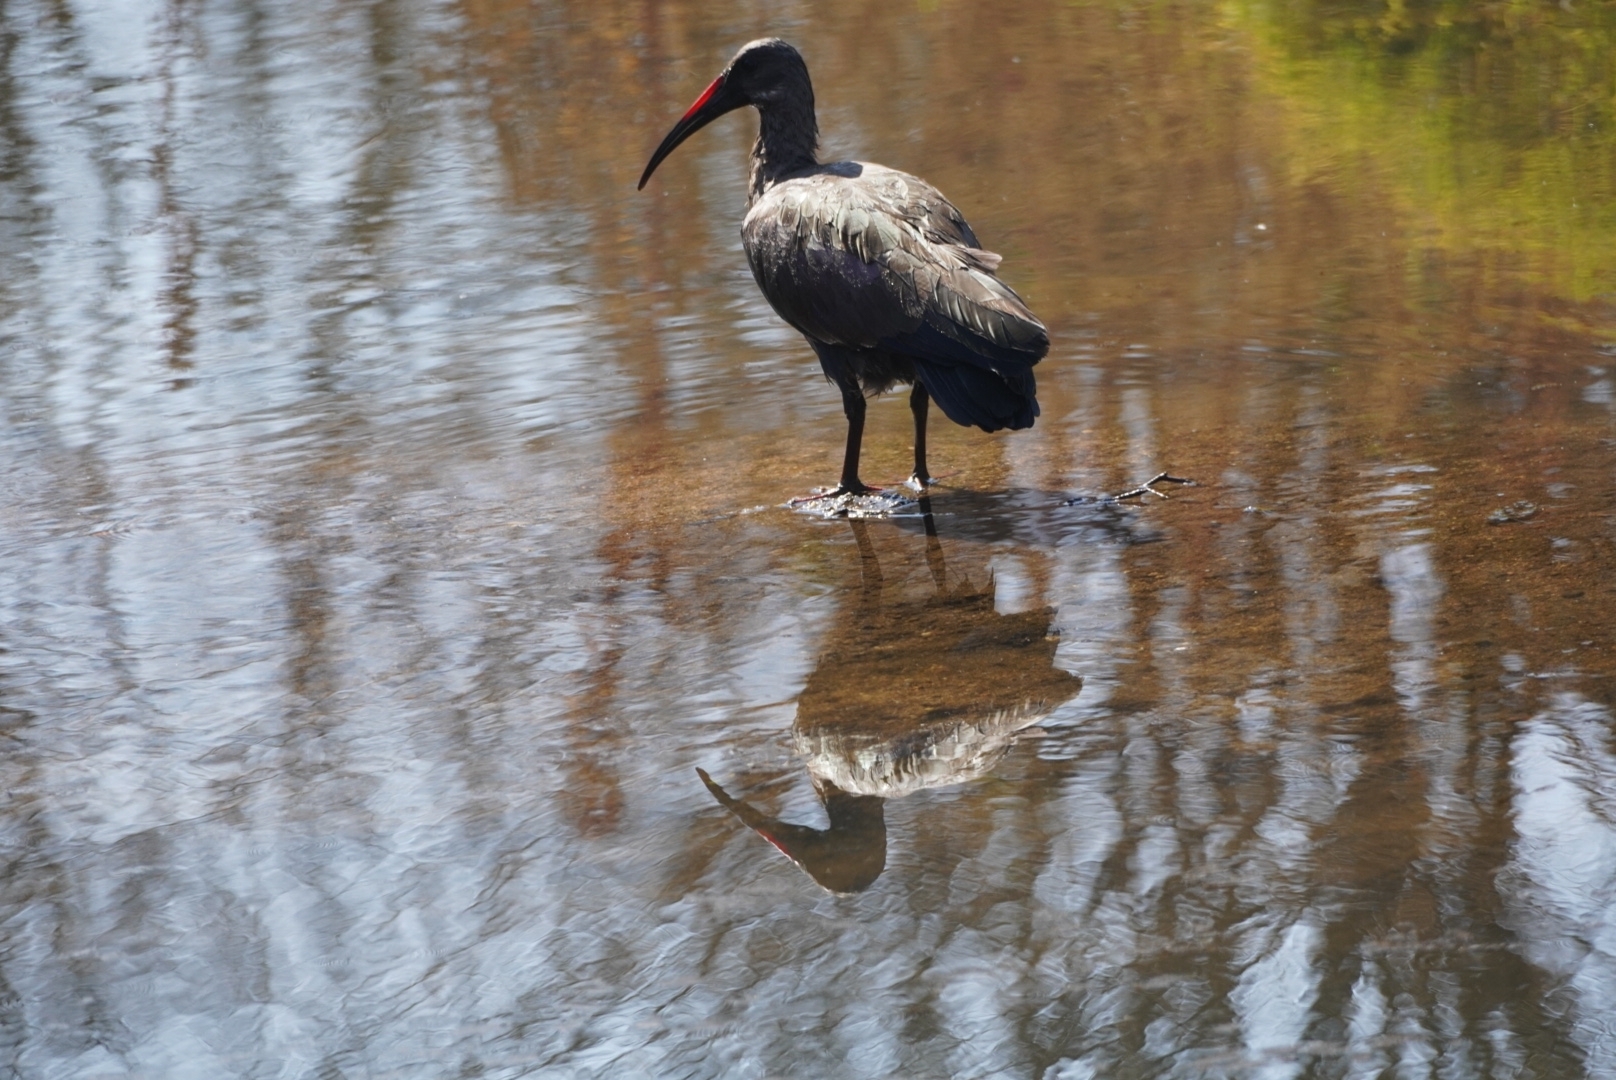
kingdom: Animalia
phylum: Chordata
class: Aves
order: Pelecaniformes
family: Threskiornithidae
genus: Bostrychia
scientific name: Bostrychia hagedash
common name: Hadada ibis
